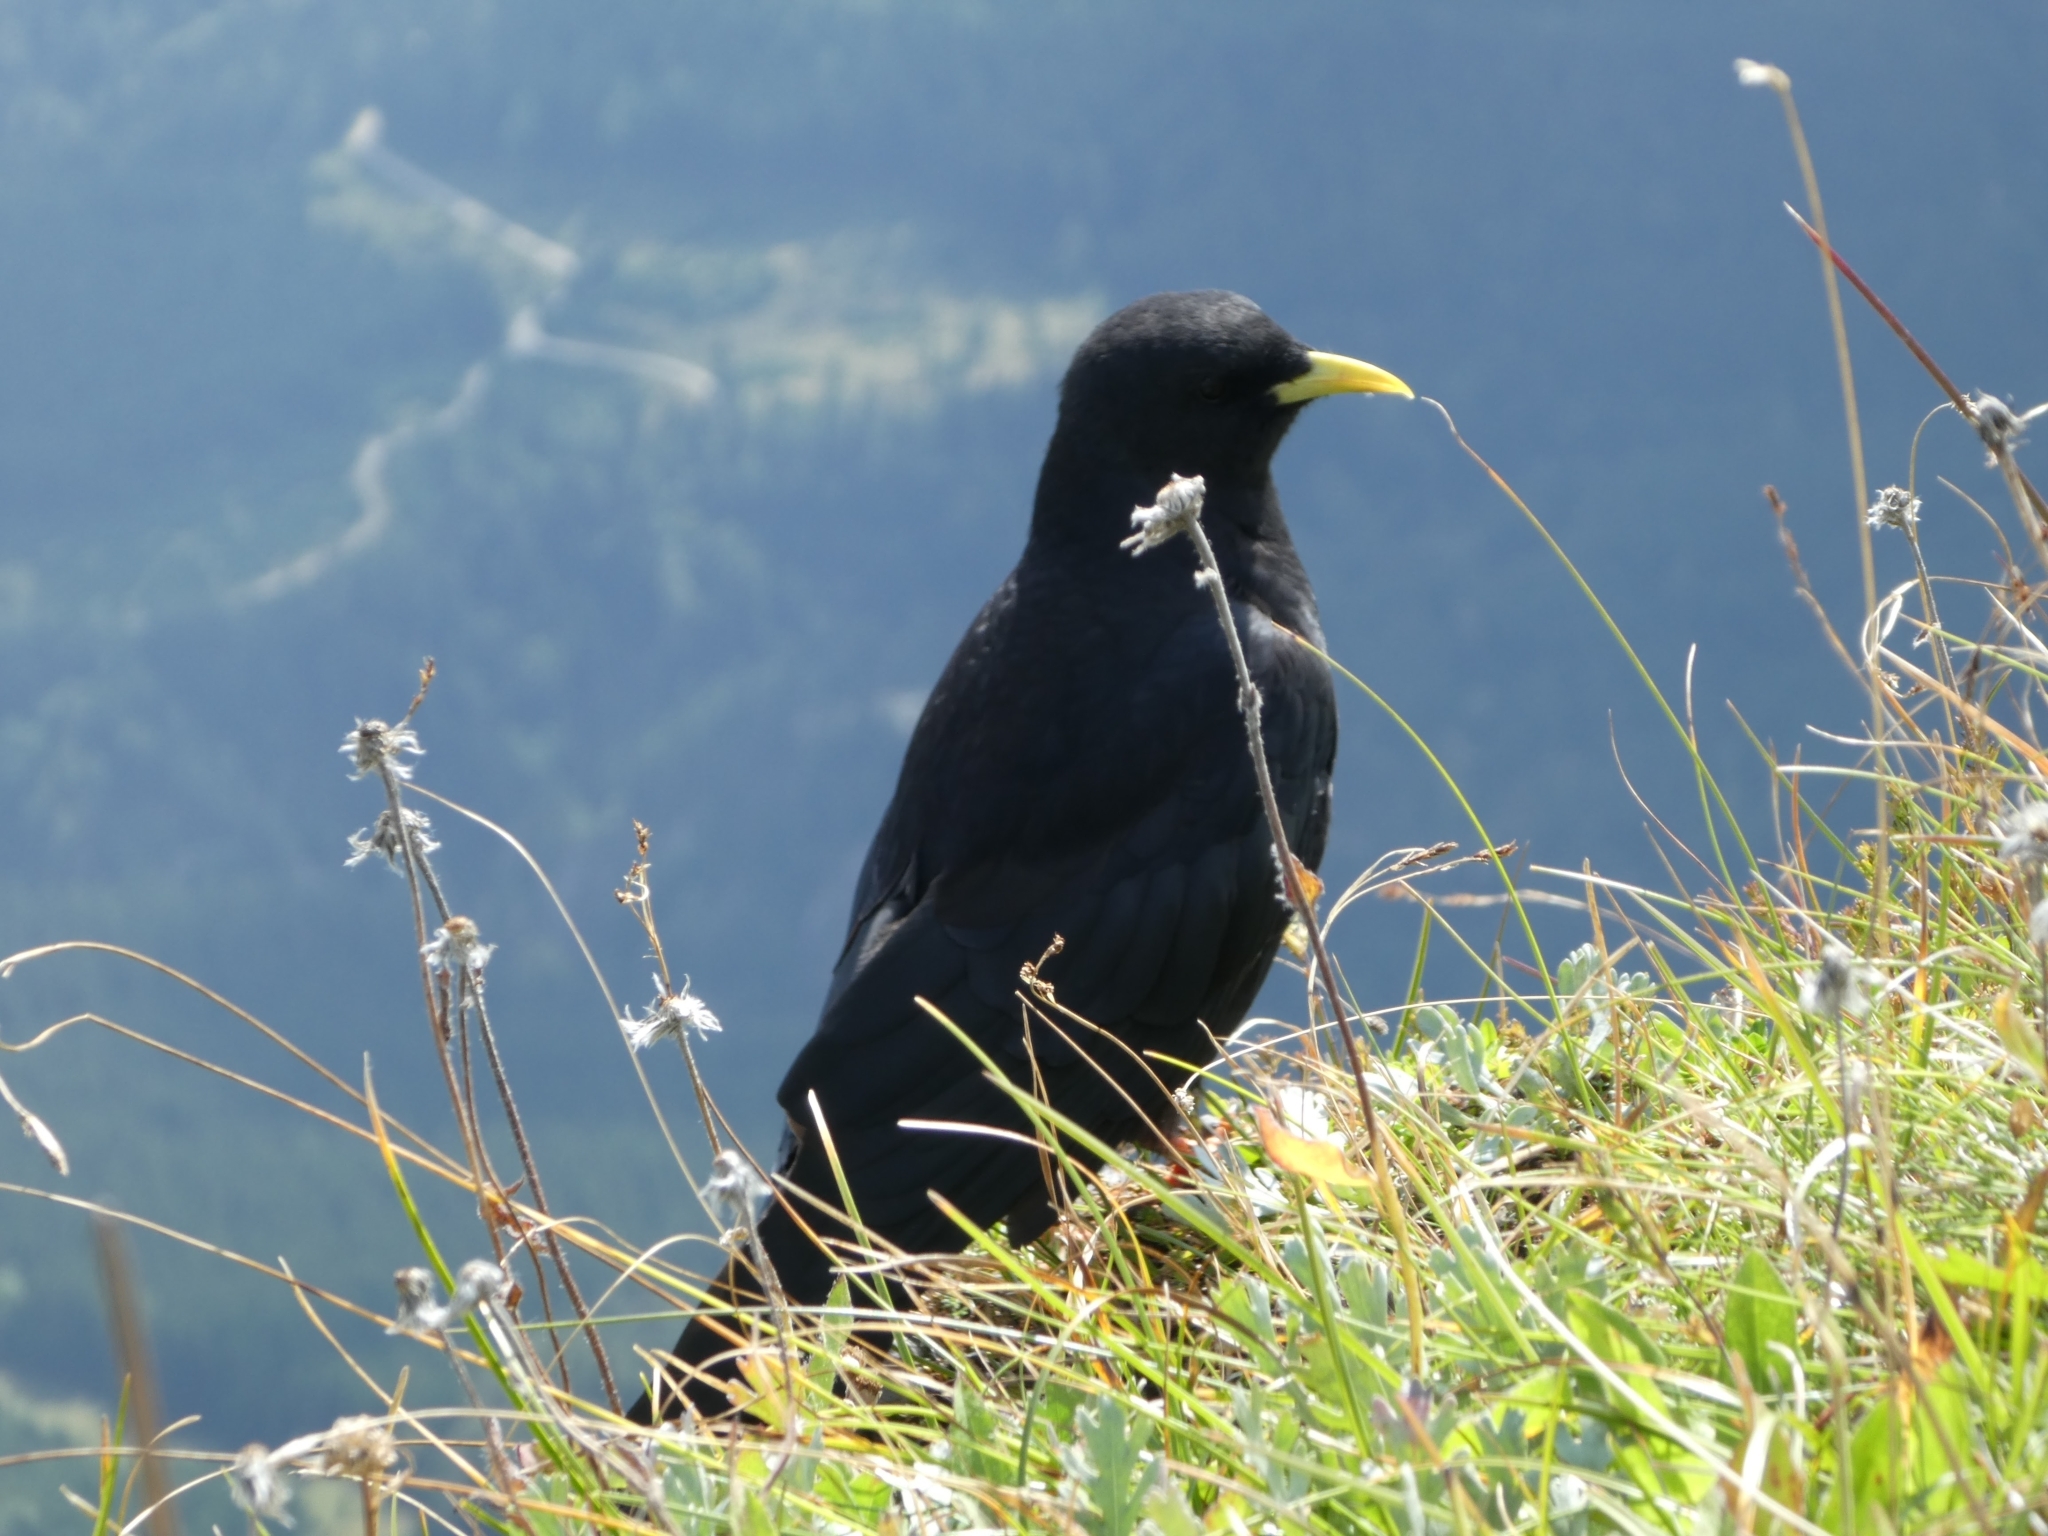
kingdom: Animalia
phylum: Chordata
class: Aves
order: Passeriformes
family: Corvidae
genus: Pyrrhocorax
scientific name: Pyrrhocorax graculus
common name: Alpine chough
